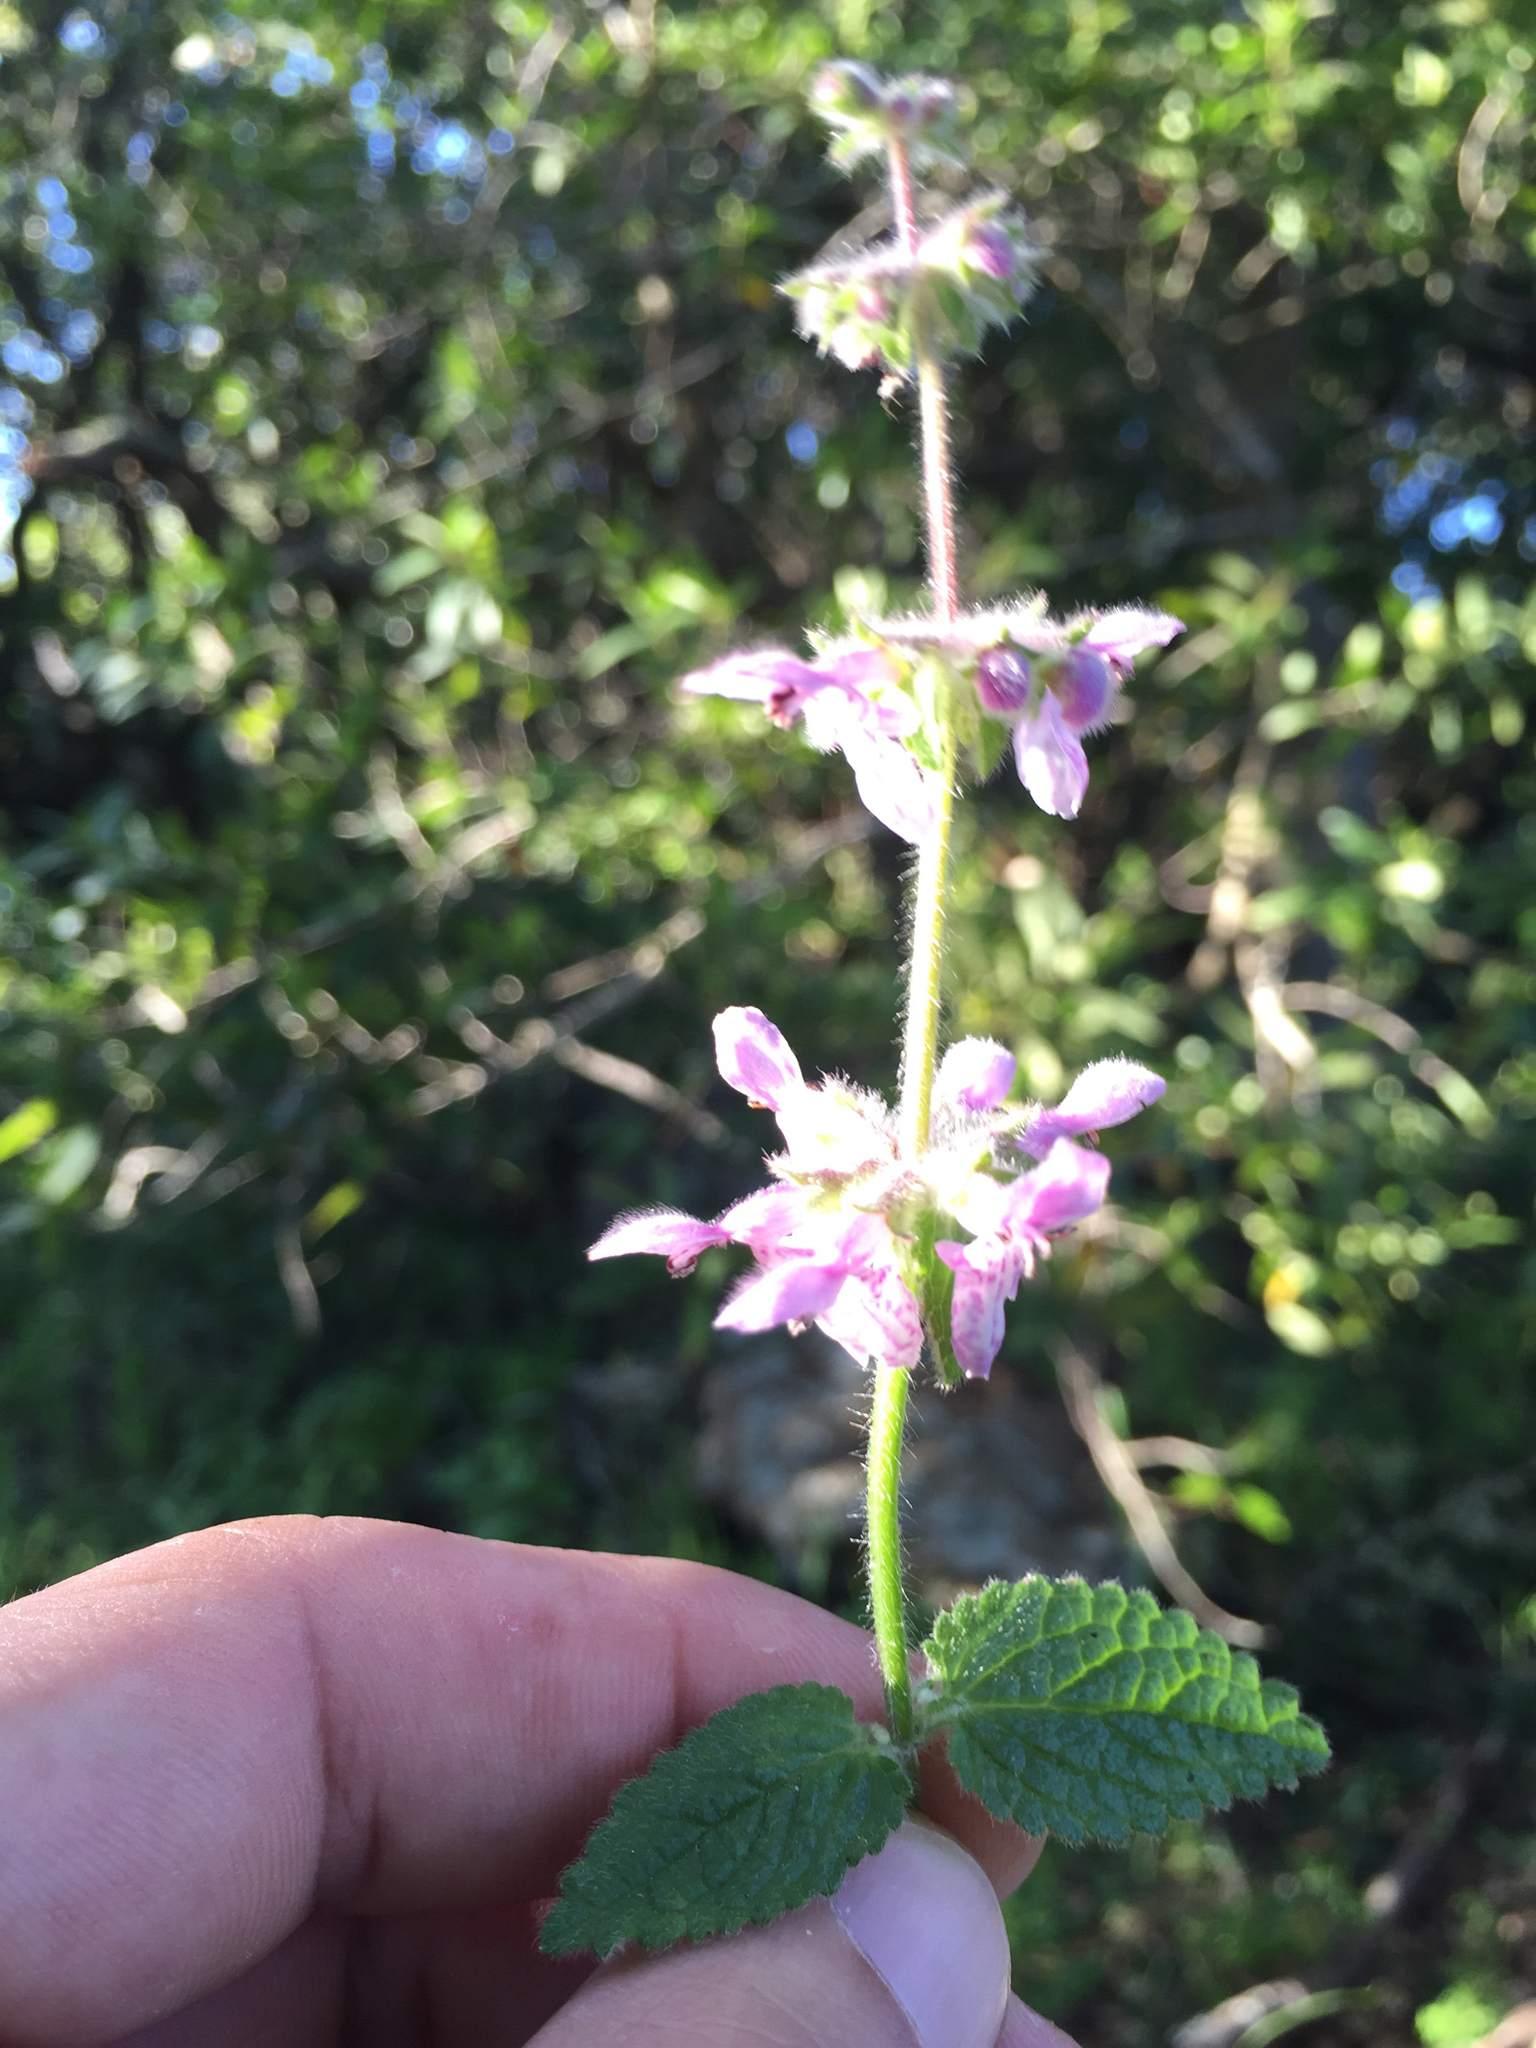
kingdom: Plantae
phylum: Tracheophyta
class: Magnoliopsida
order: Lamiales
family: Lamiaceae
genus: Stachys
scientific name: Stachys rigida
